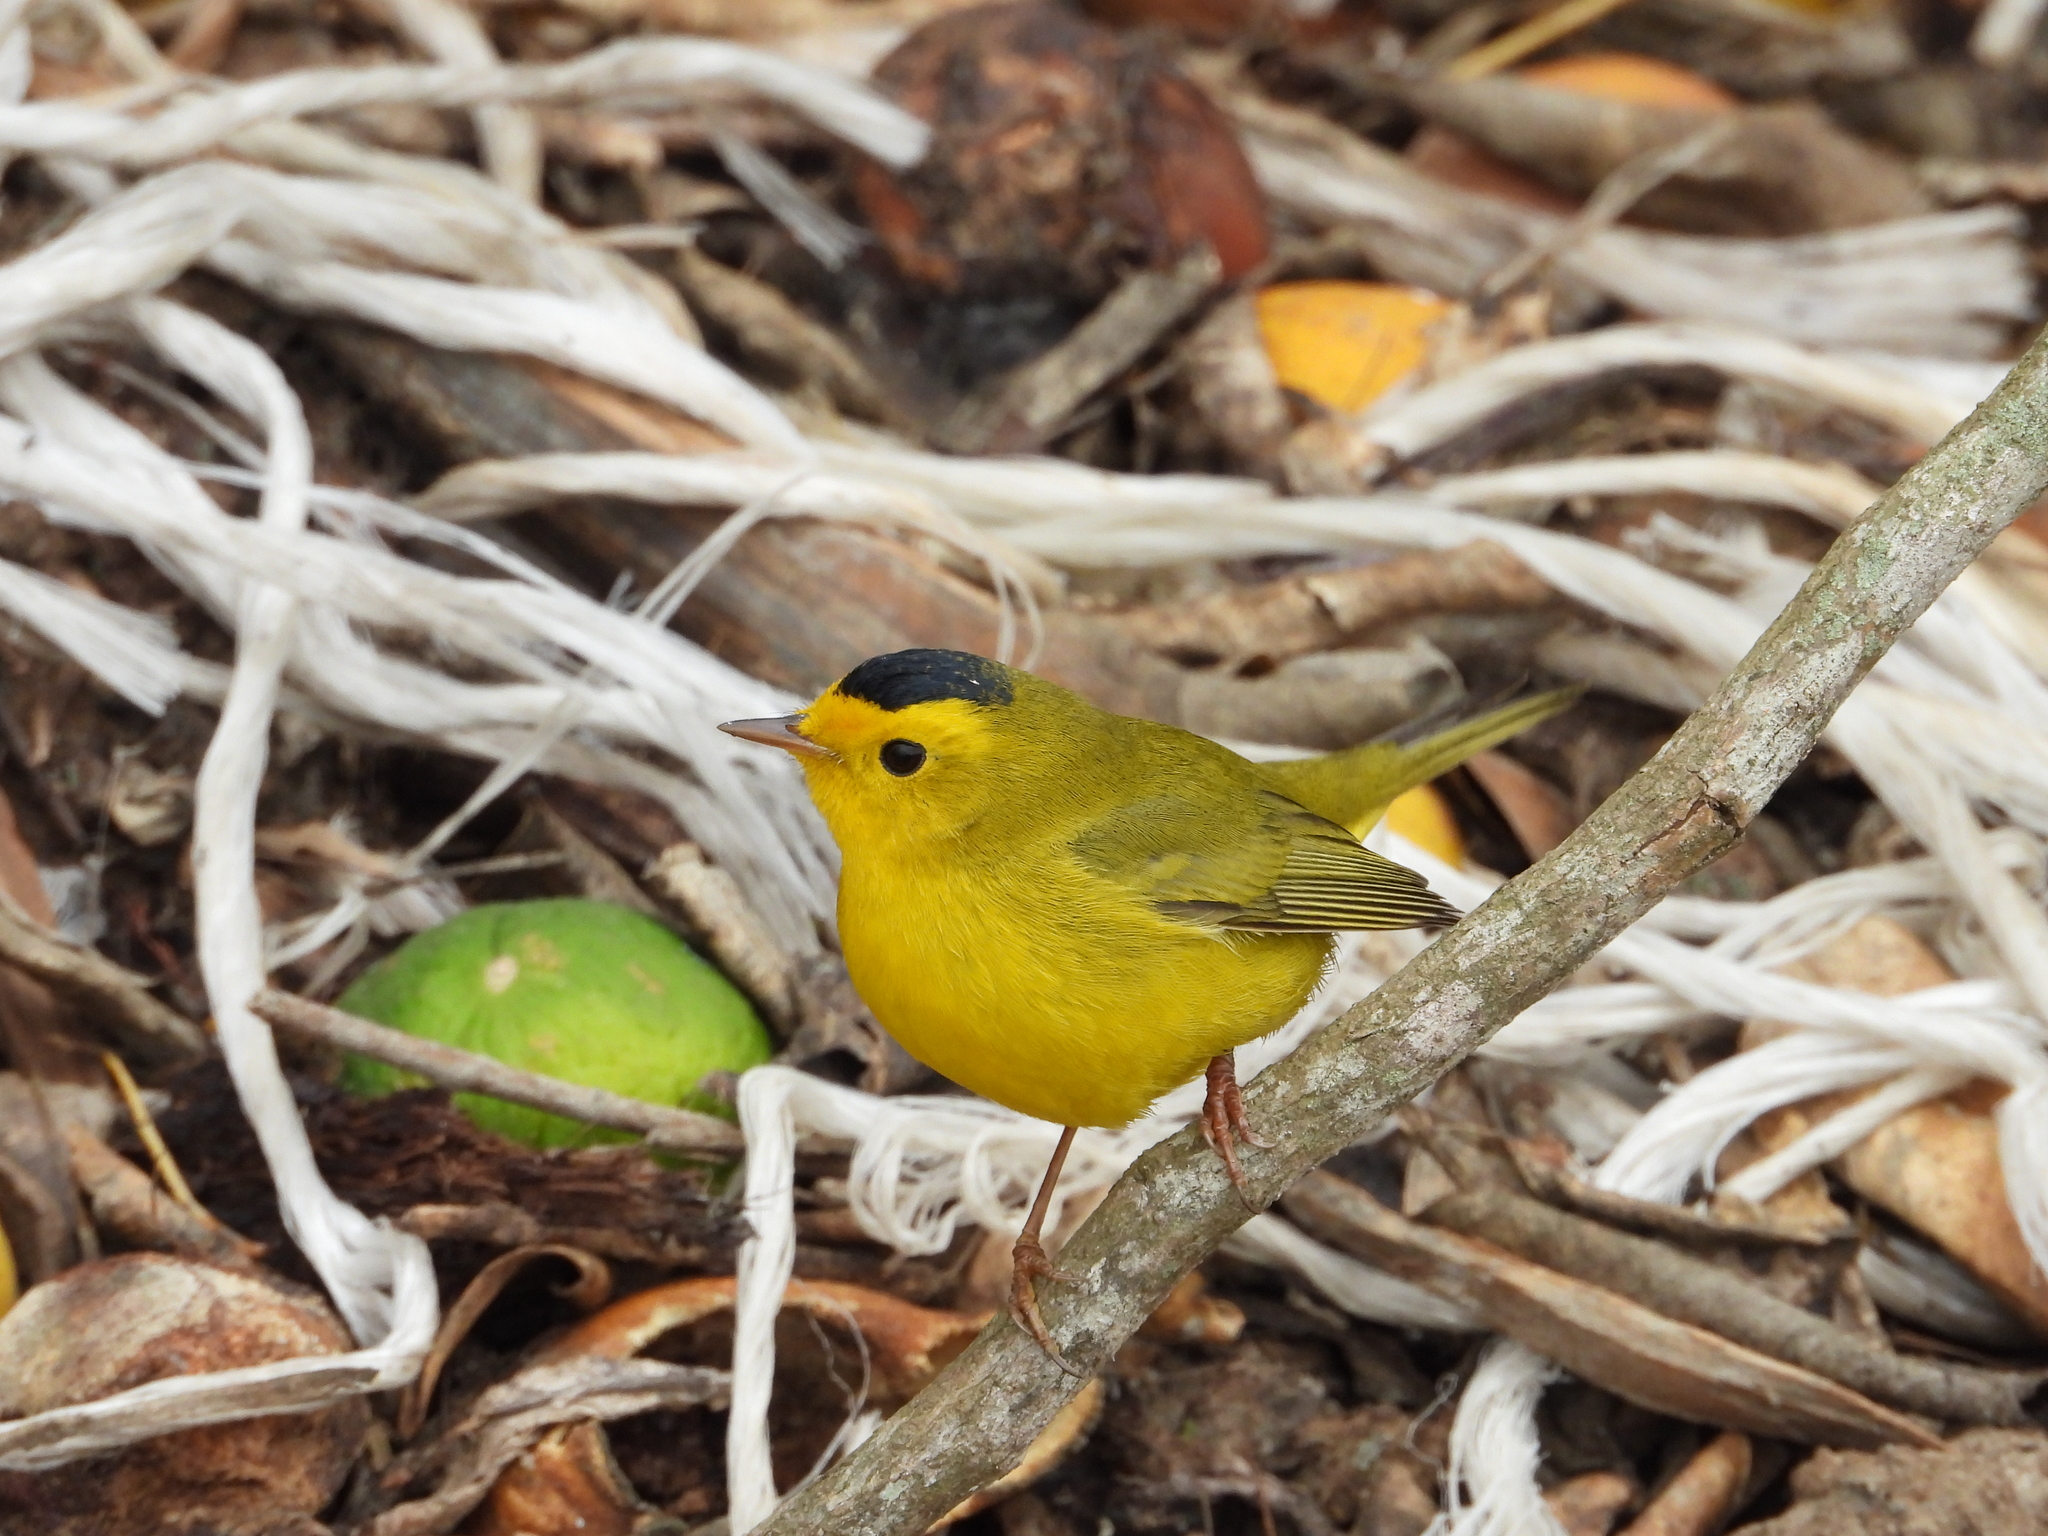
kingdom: Animalia
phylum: Chordata
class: Aves
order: Passeriformes
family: Parulidae
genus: Cardellina
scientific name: Cardellina pusilla
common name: Wilson's warbler
